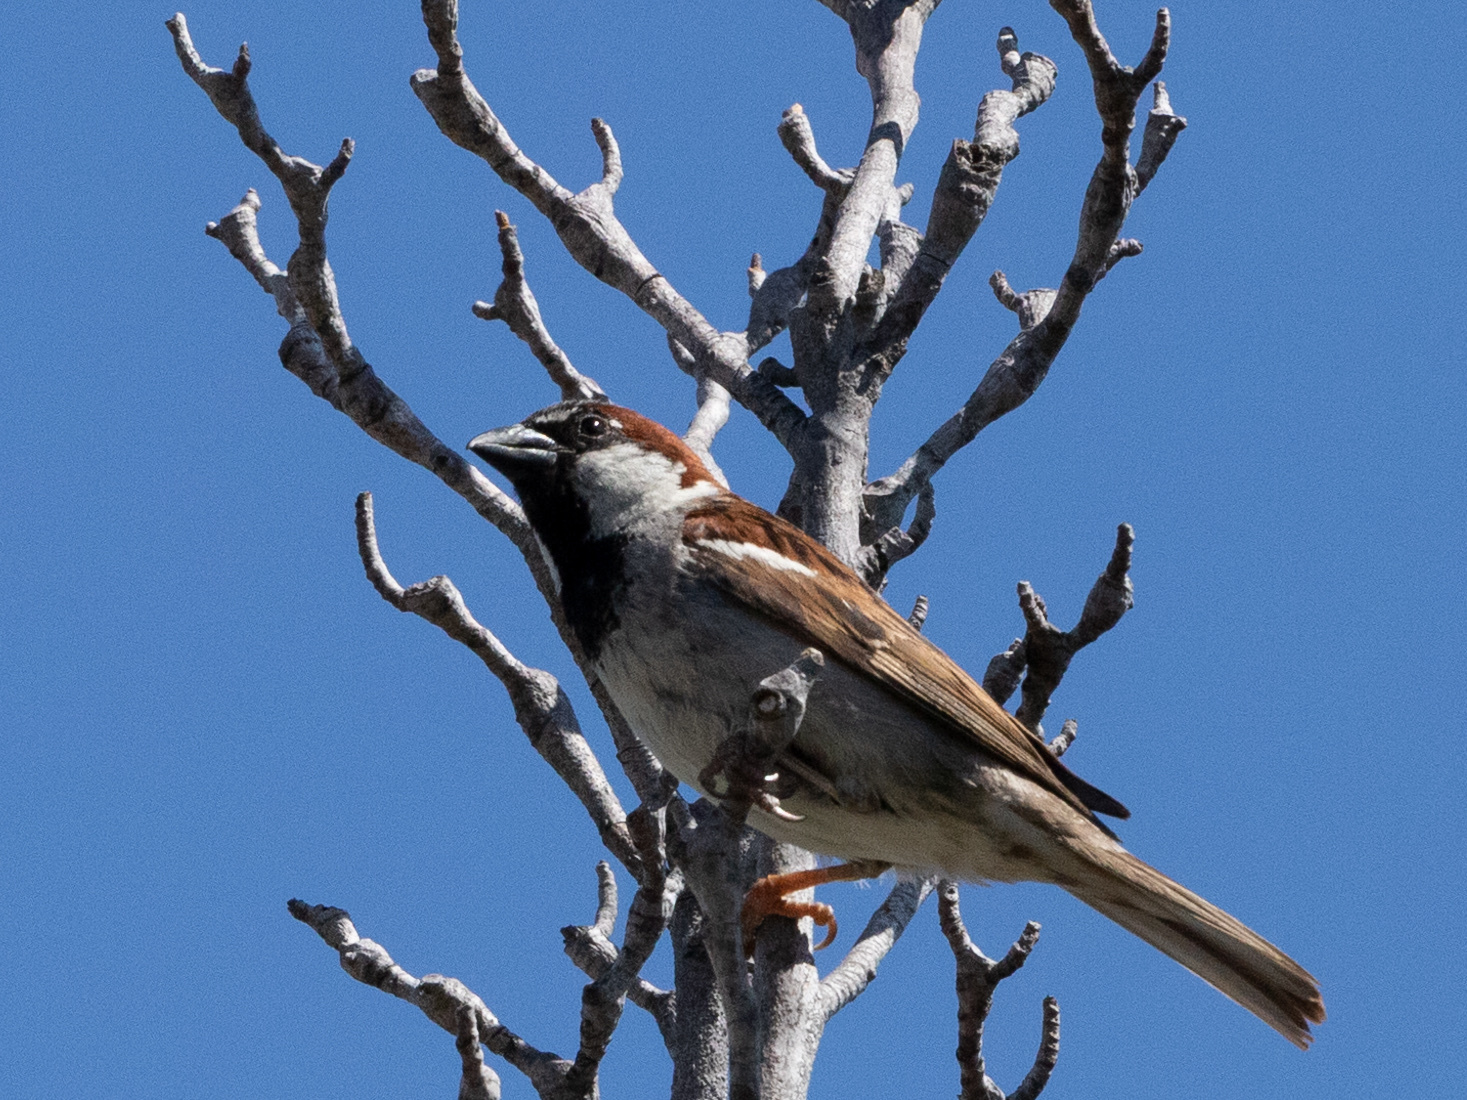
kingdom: Animalia
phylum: Chordata
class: Aves
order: Passeriformes
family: Passeridae
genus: Passer
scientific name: Passer domesticus
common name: House sparrow
